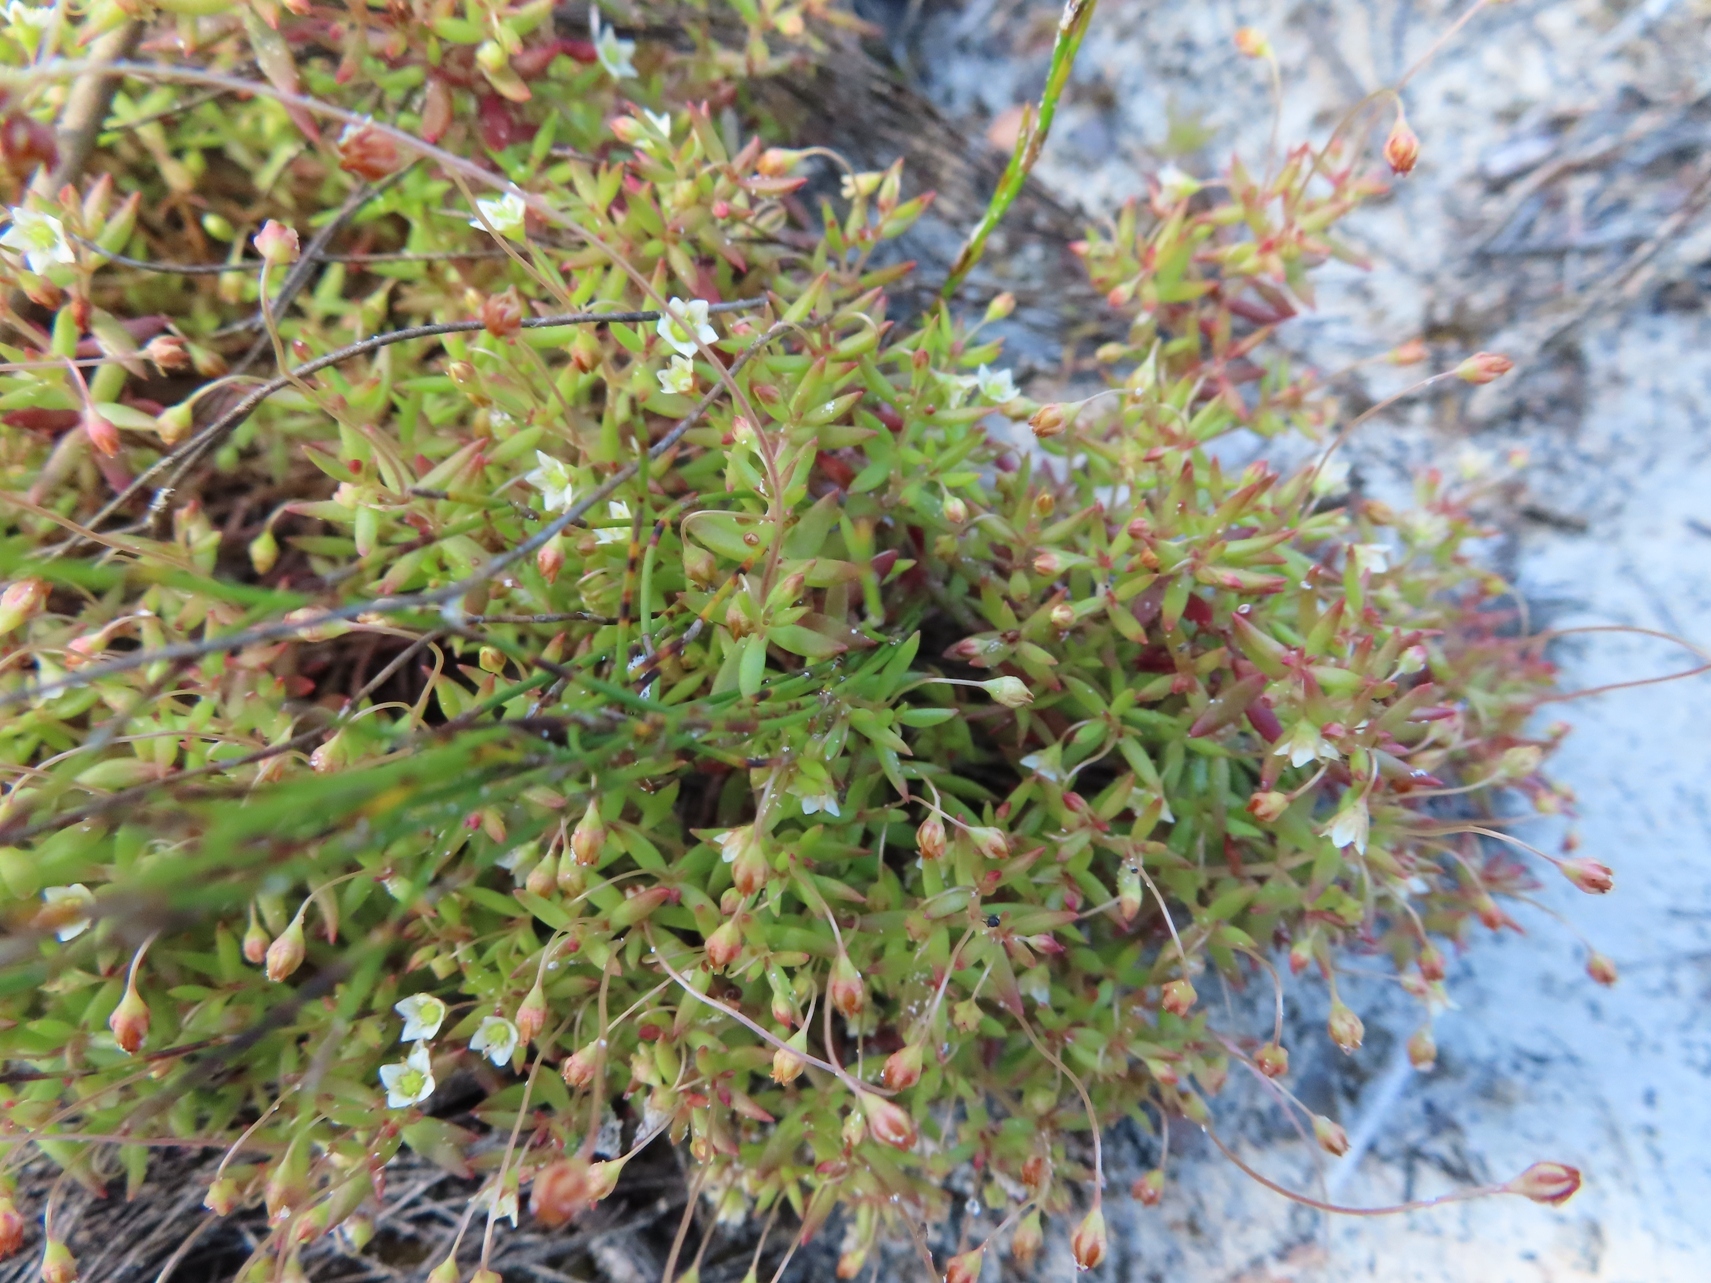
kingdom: Plantae
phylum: Tracheophyta
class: Magnoliopsida
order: Saxifragales
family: Crassulaceae
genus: Crassula
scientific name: Crassula expansa
